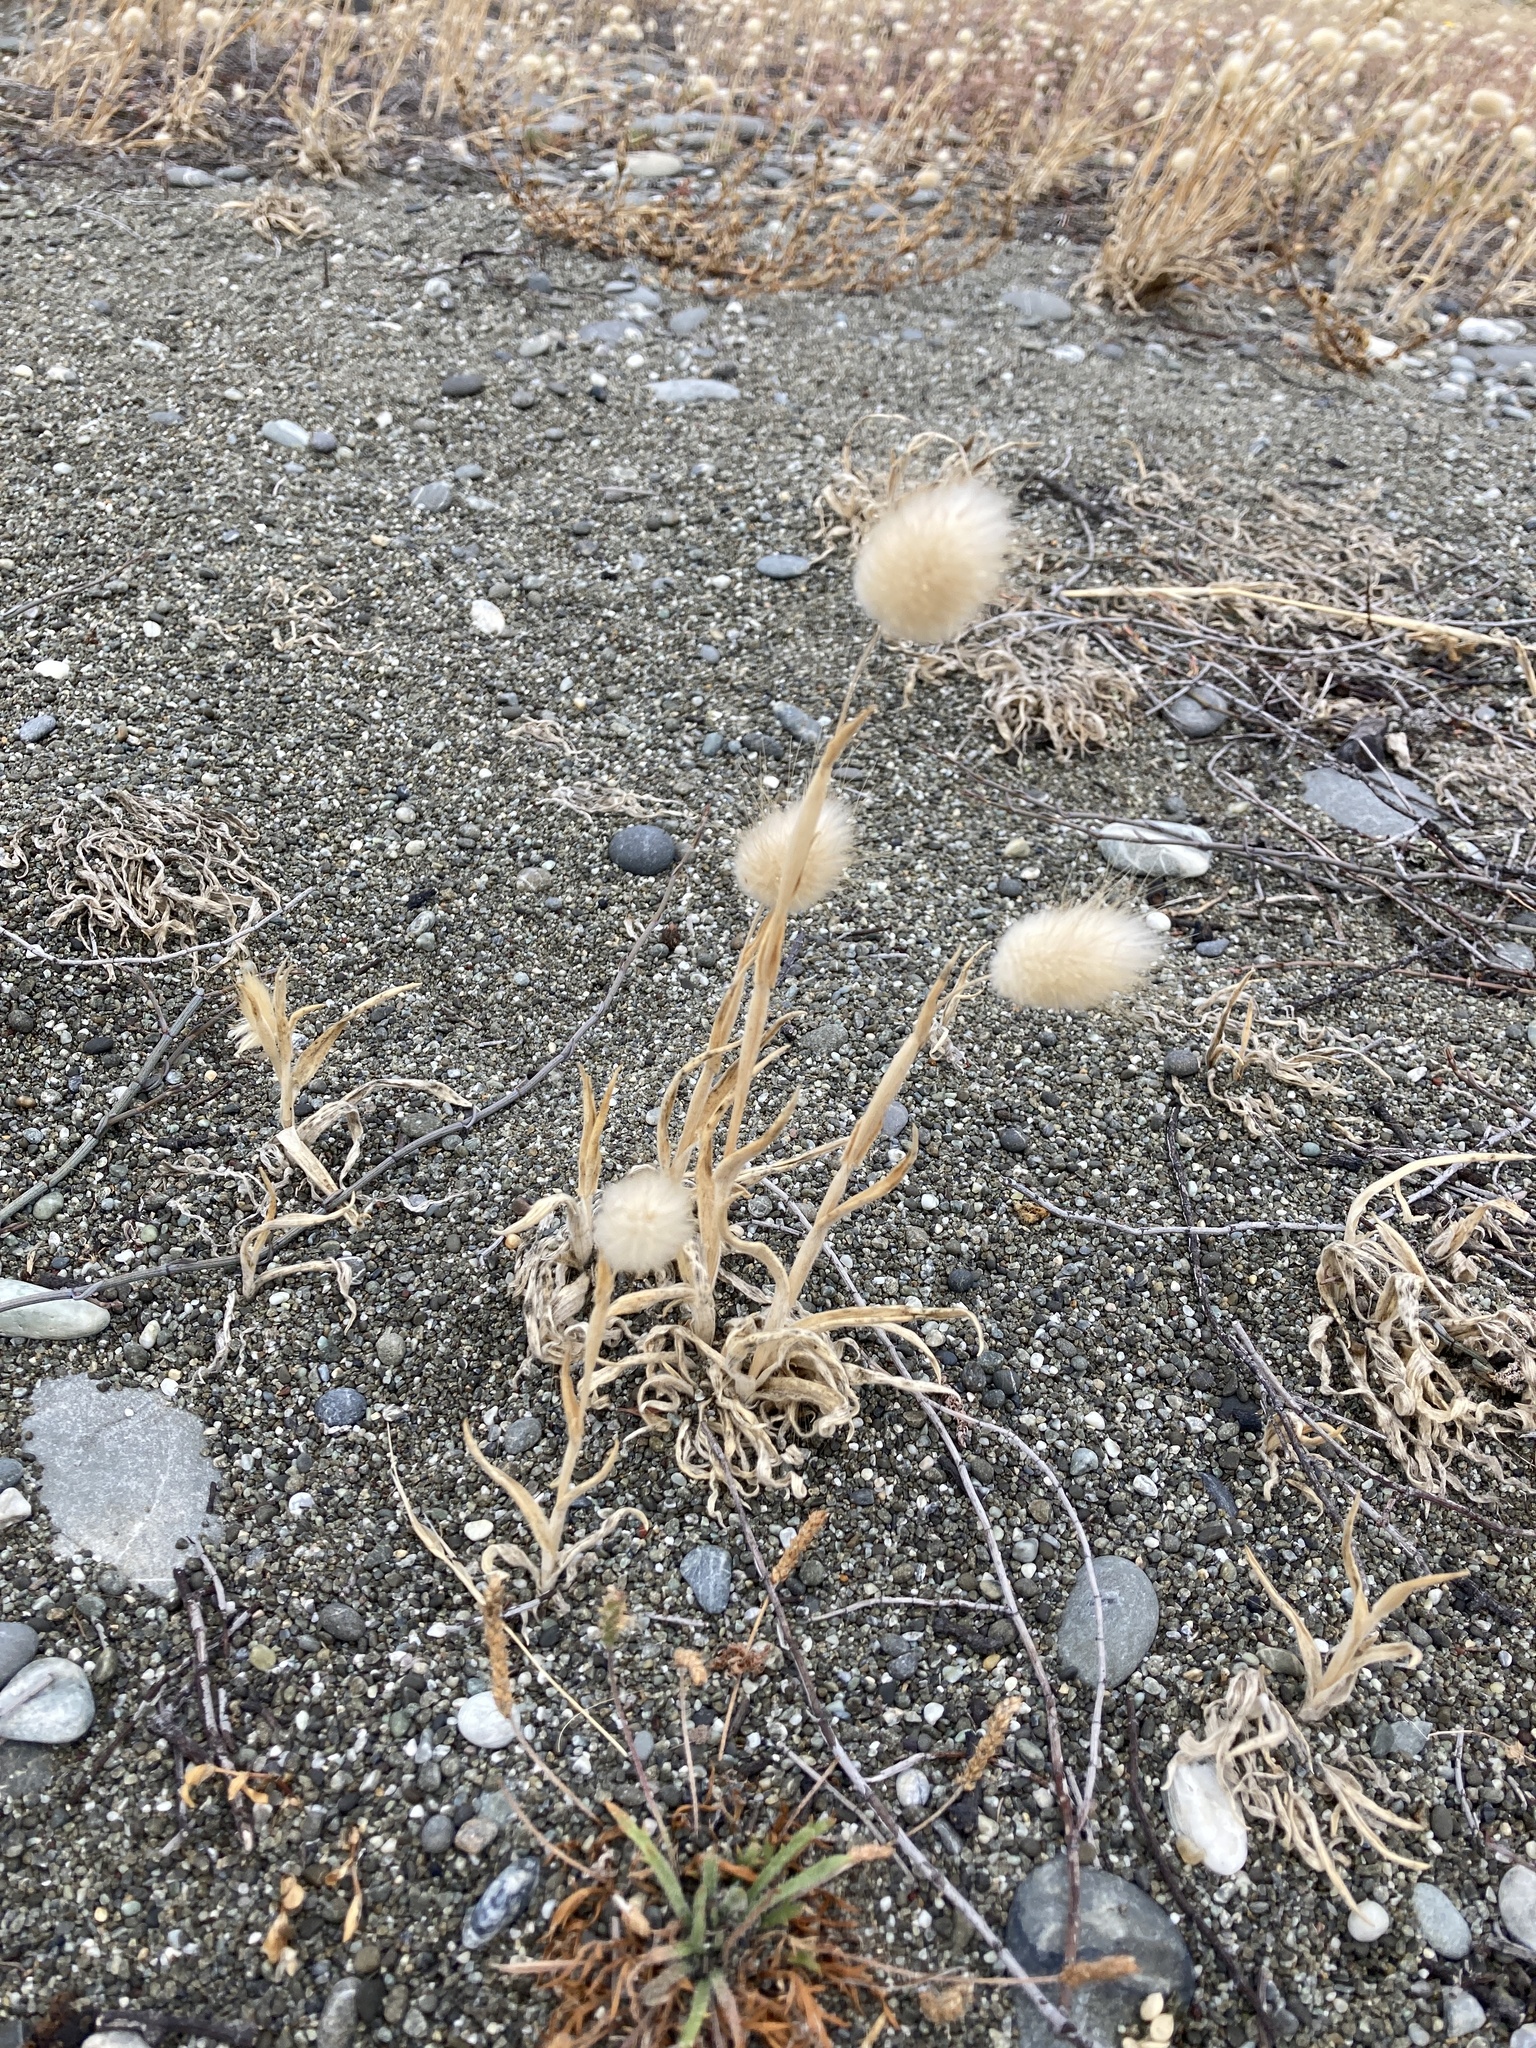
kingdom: Plantae
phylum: Tracheophyta
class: Liliopsida
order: Poales
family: Poaceae
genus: Lagurus
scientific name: Lagurus ovatus
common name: Hare's-tail
